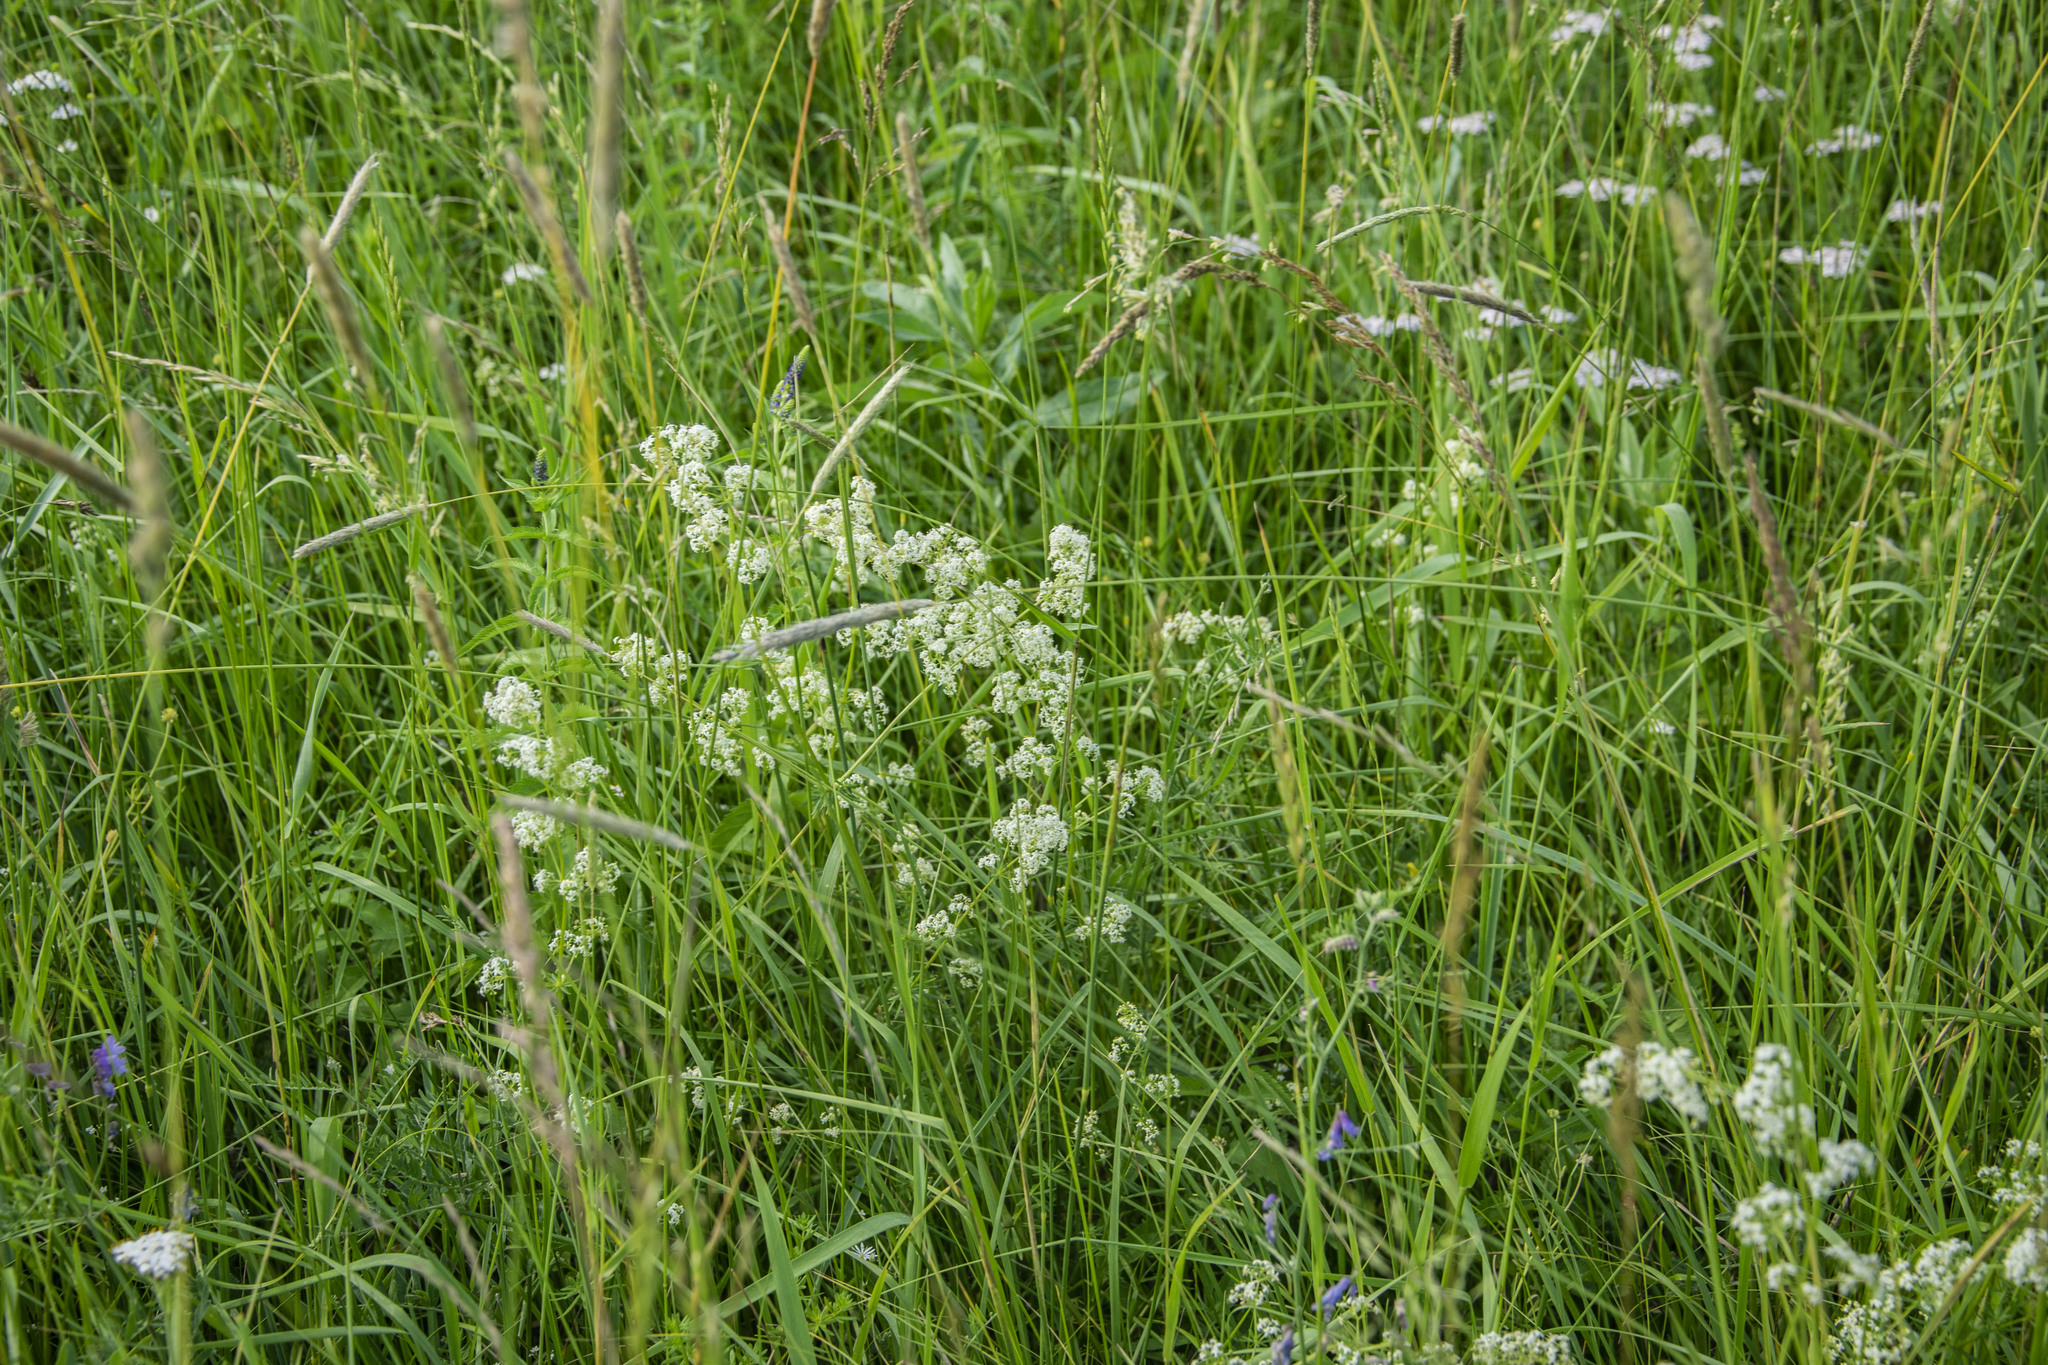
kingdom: Plantae
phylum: Tracheophyta
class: Magnoliopsida
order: Gentianales
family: Rubiaceae
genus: Galium
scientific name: Galium mollugo
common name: Hedge bedstraw
